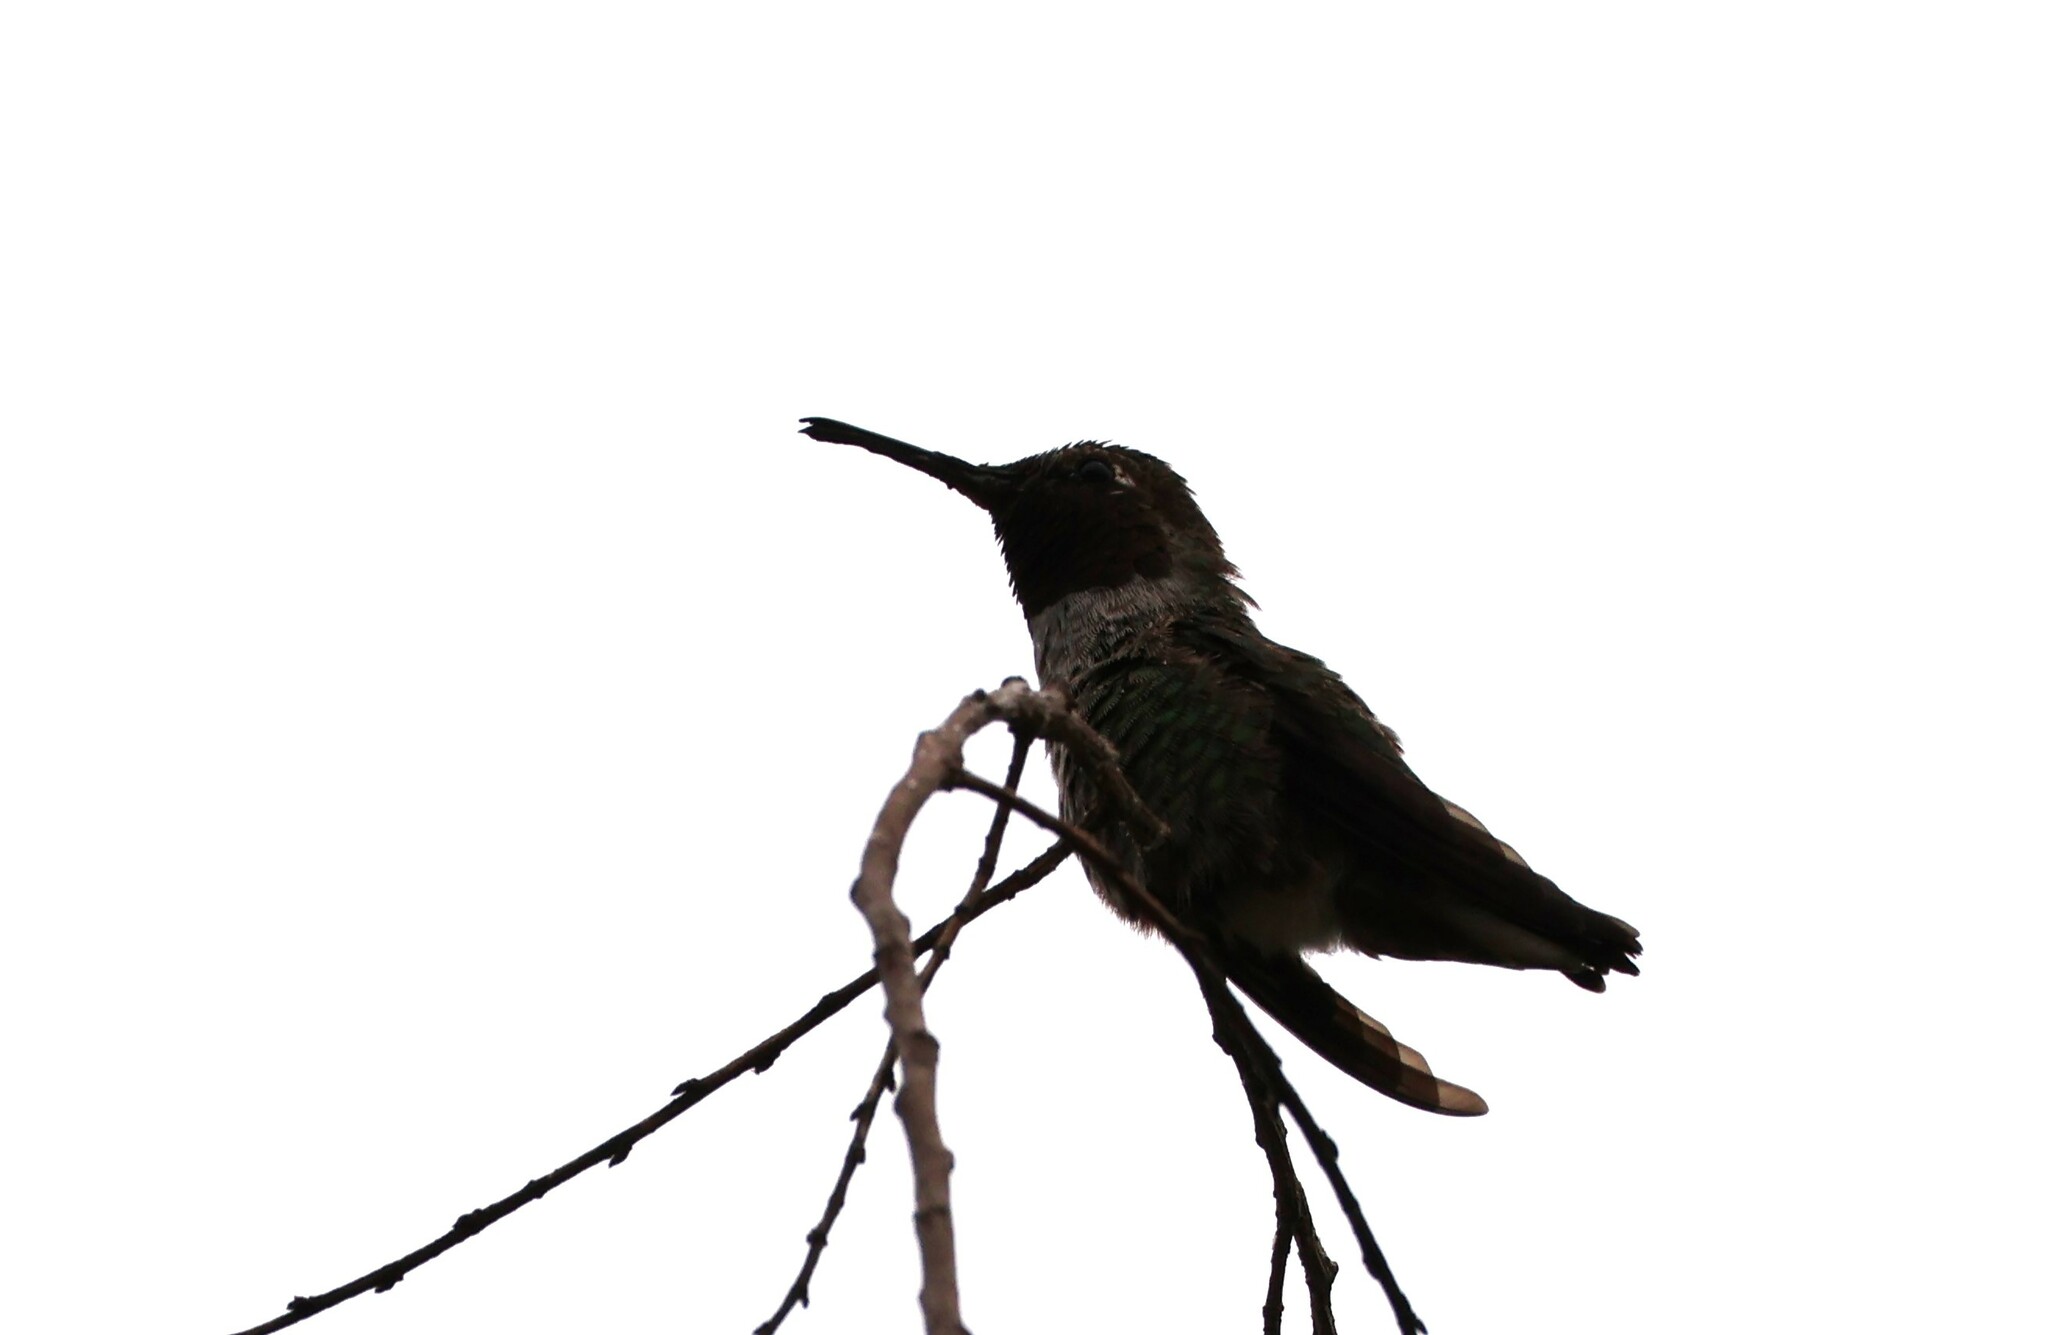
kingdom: Animalia
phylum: Chordata
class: Aves
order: Apodiformes
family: Trochilidae
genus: Calypte
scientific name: Calypte anna
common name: Anna's hummingbird
